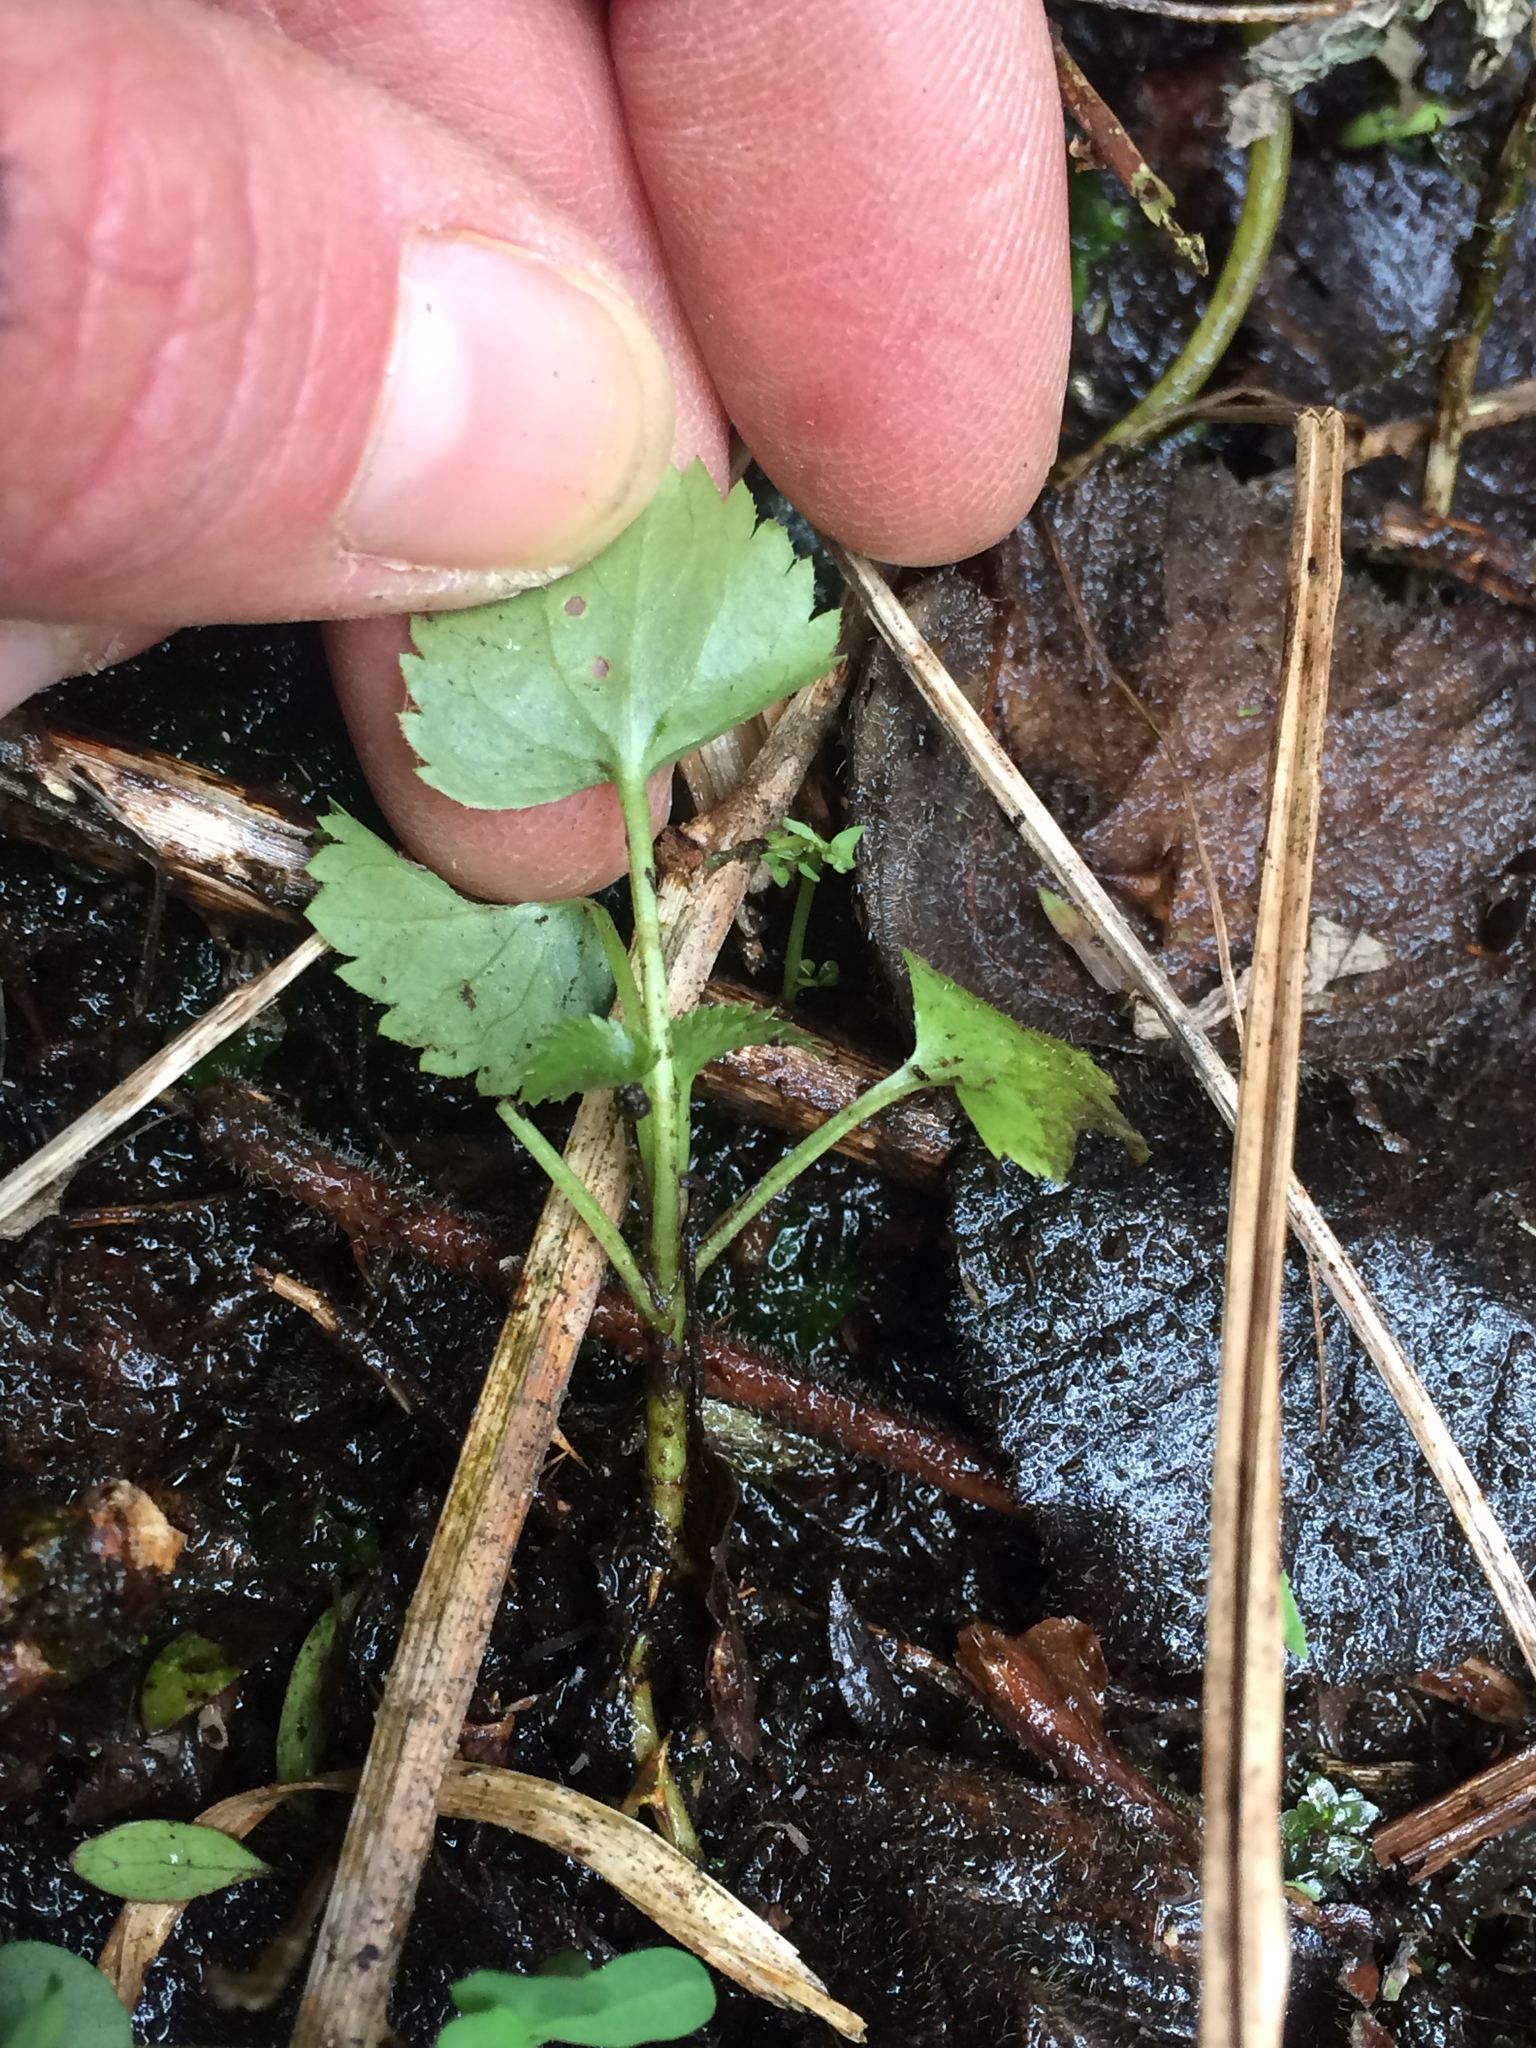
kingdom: Plantae
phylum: Tracheophyta
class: Magnoliopsida
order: Dipsacales
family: Viburnaceae
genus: Sambucus
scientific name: Sambucus nigra
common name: Elder
